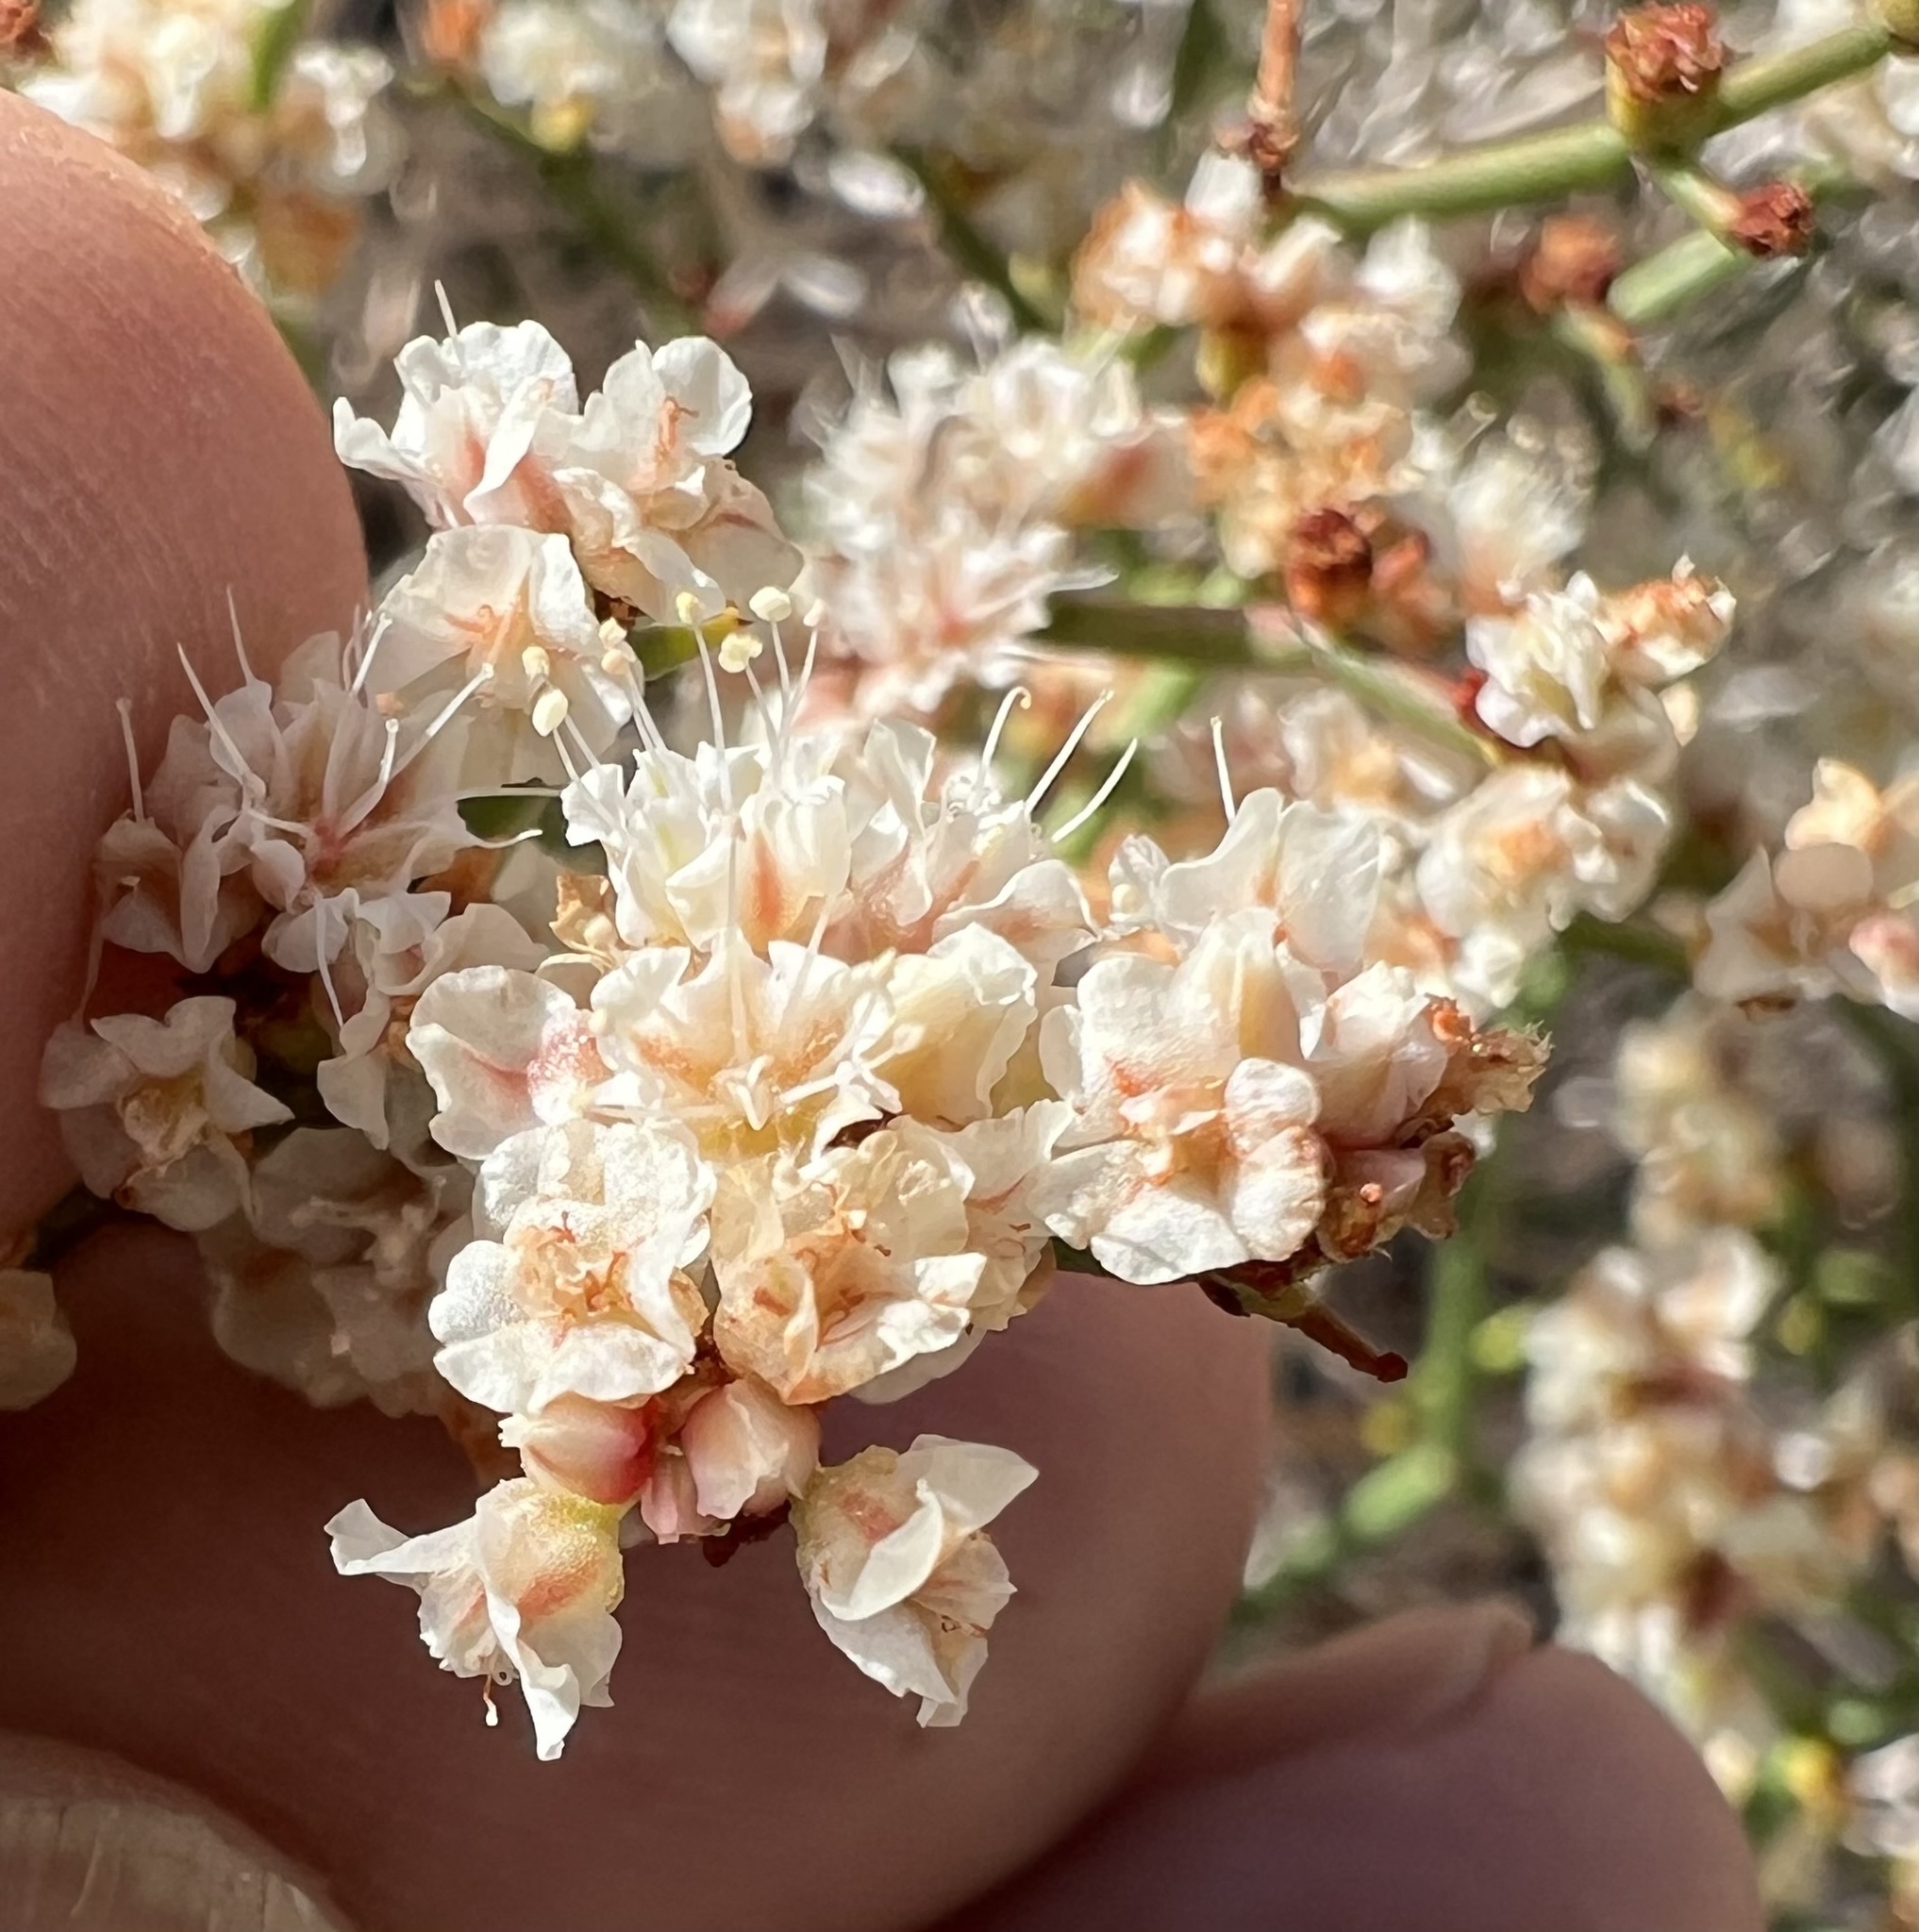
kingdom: Plantae
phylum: Tracheophyta
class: Magnoliopsida
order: Caryophyllales
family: Polygonaceae
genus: Eriogonum
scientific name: Eriogonum heermannii
